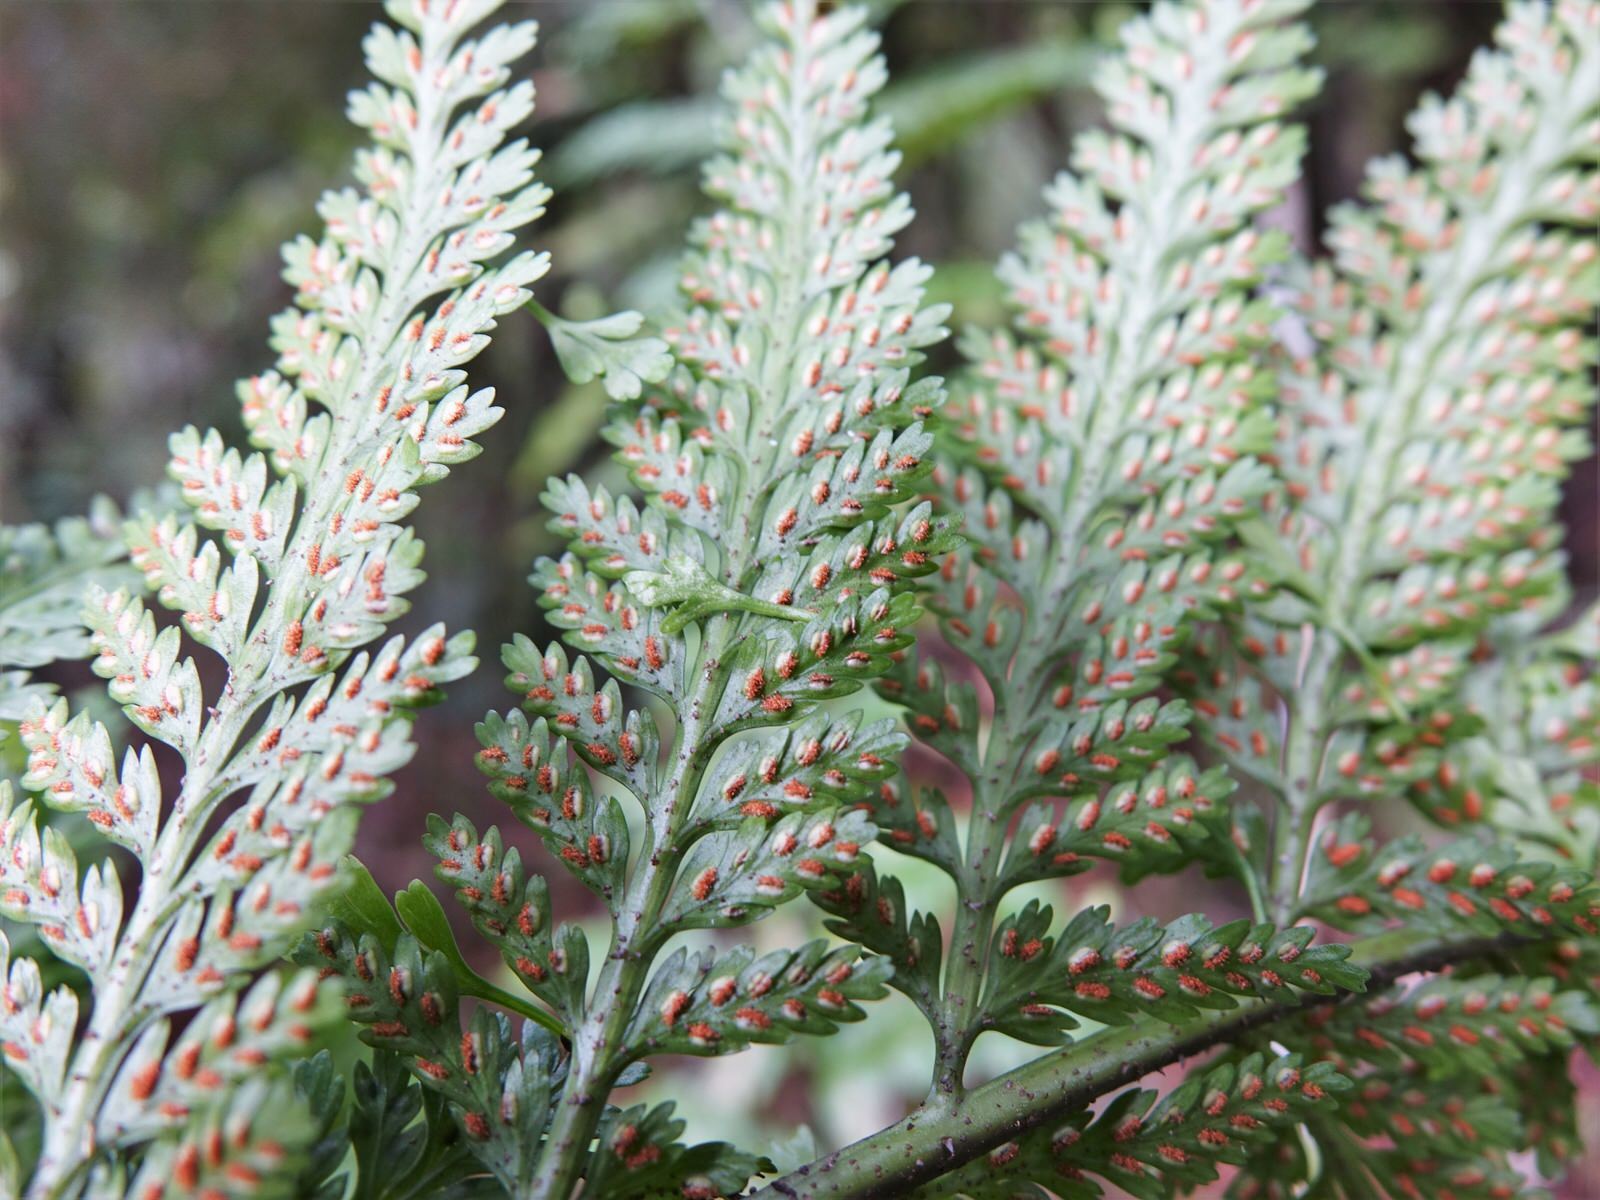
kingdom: Plantae
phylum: Tracheophyta
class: Polypodiopsida
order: Polypodiales
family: Aspleniaceae
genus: Asplenium
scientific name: Asplenium bulbiferum
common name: Mother fern
